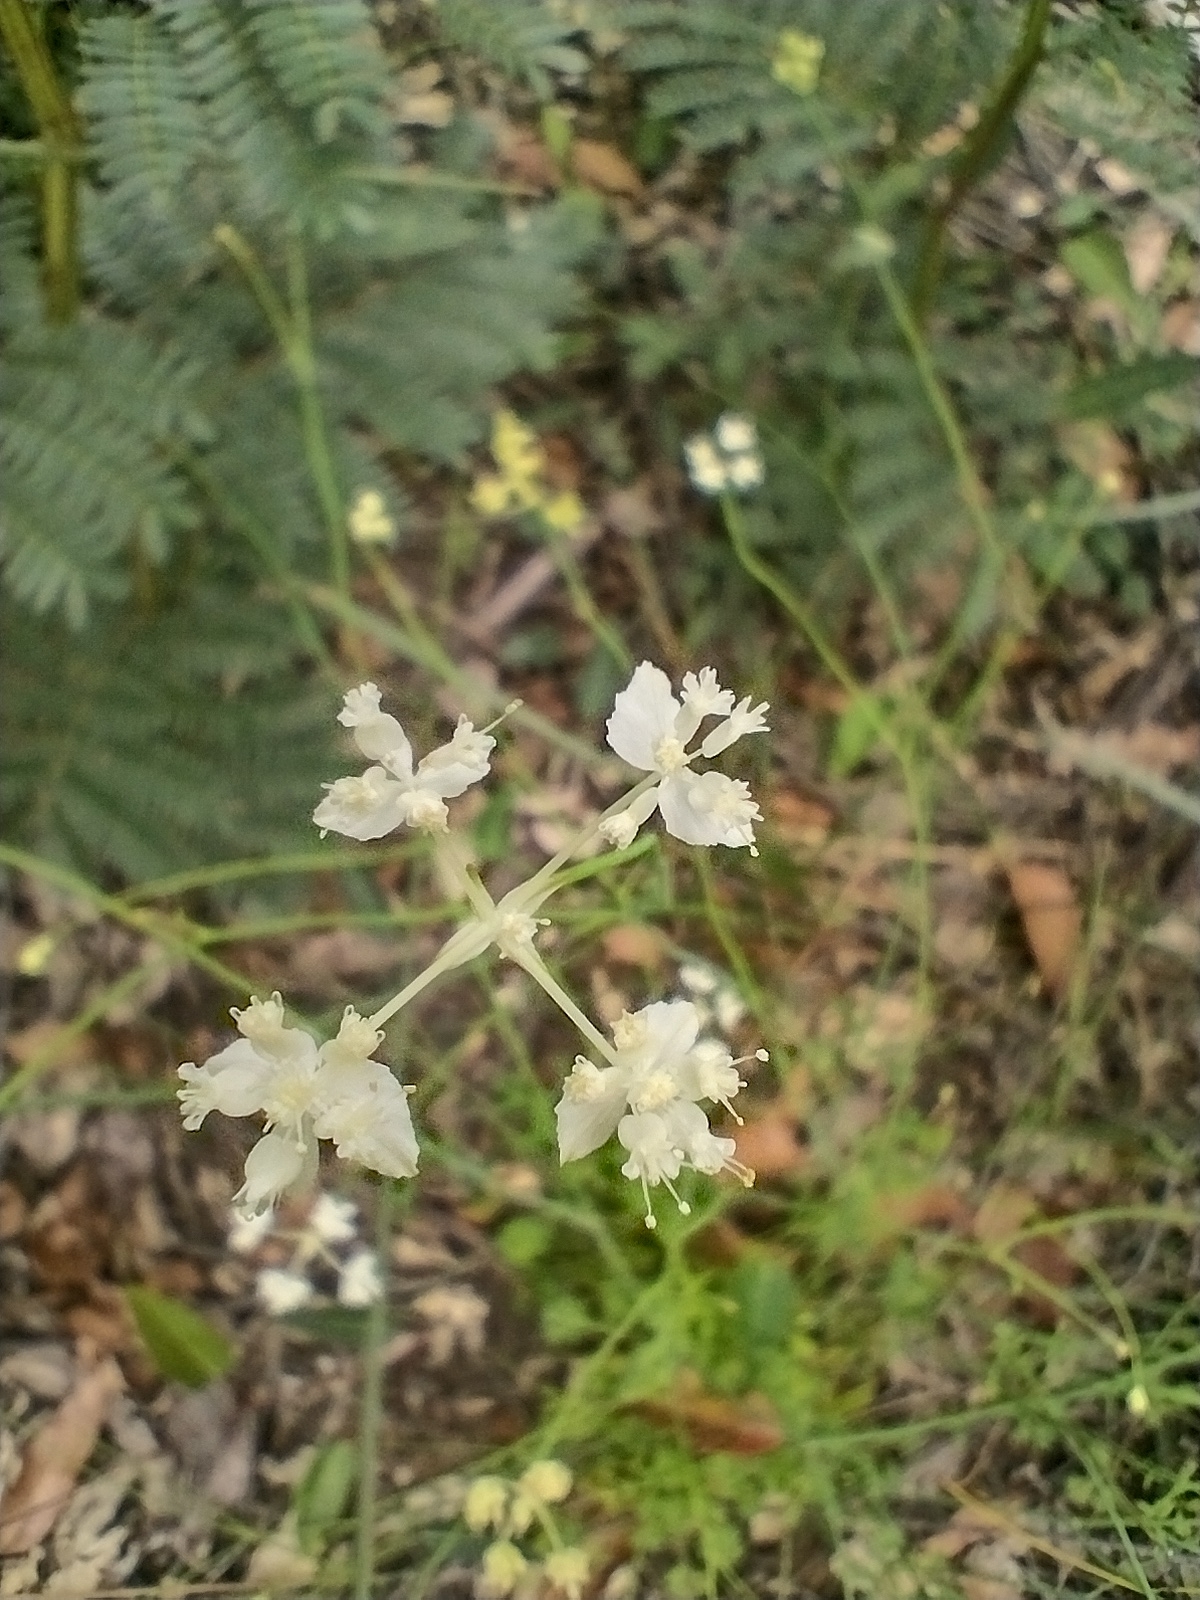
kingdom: Plantae
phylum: Tracheophyta
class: Magnoliopsida
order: Apiales
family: Apiaceae
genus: Xanthosia
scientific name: Xanthosia atkinsoniana
